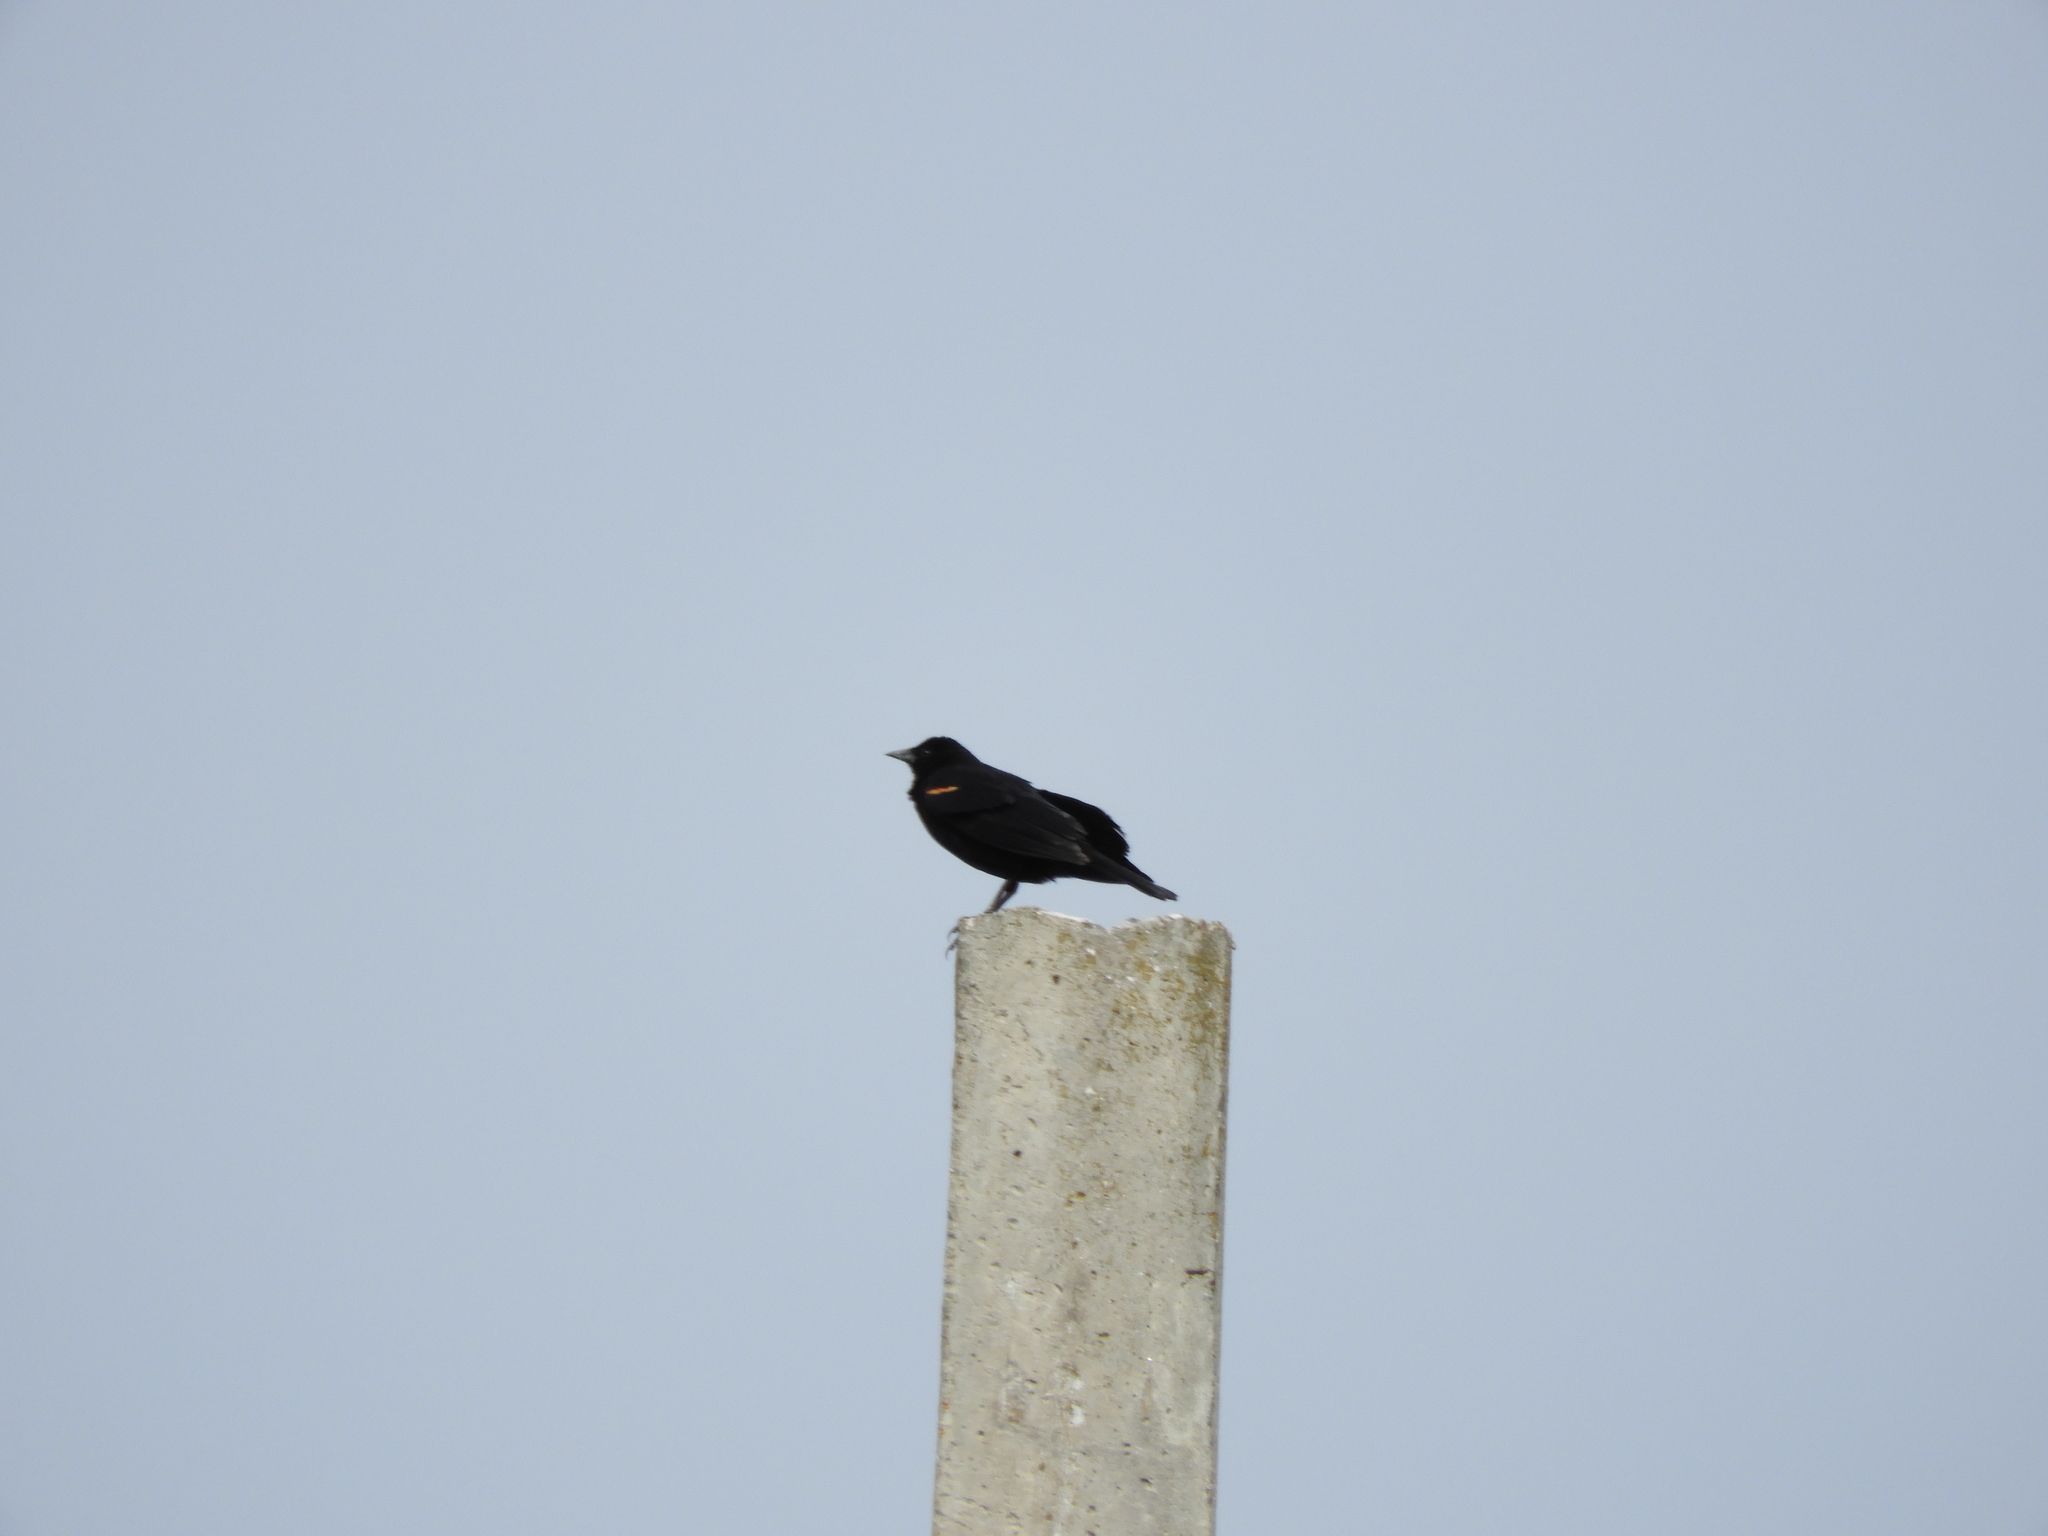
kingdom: Animalia
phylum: Chordata
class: Aves
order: Passeriformes
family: Icteridae
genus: Agelaius
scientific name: Agelaius phoeniceus
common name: Red-winged blackbird
